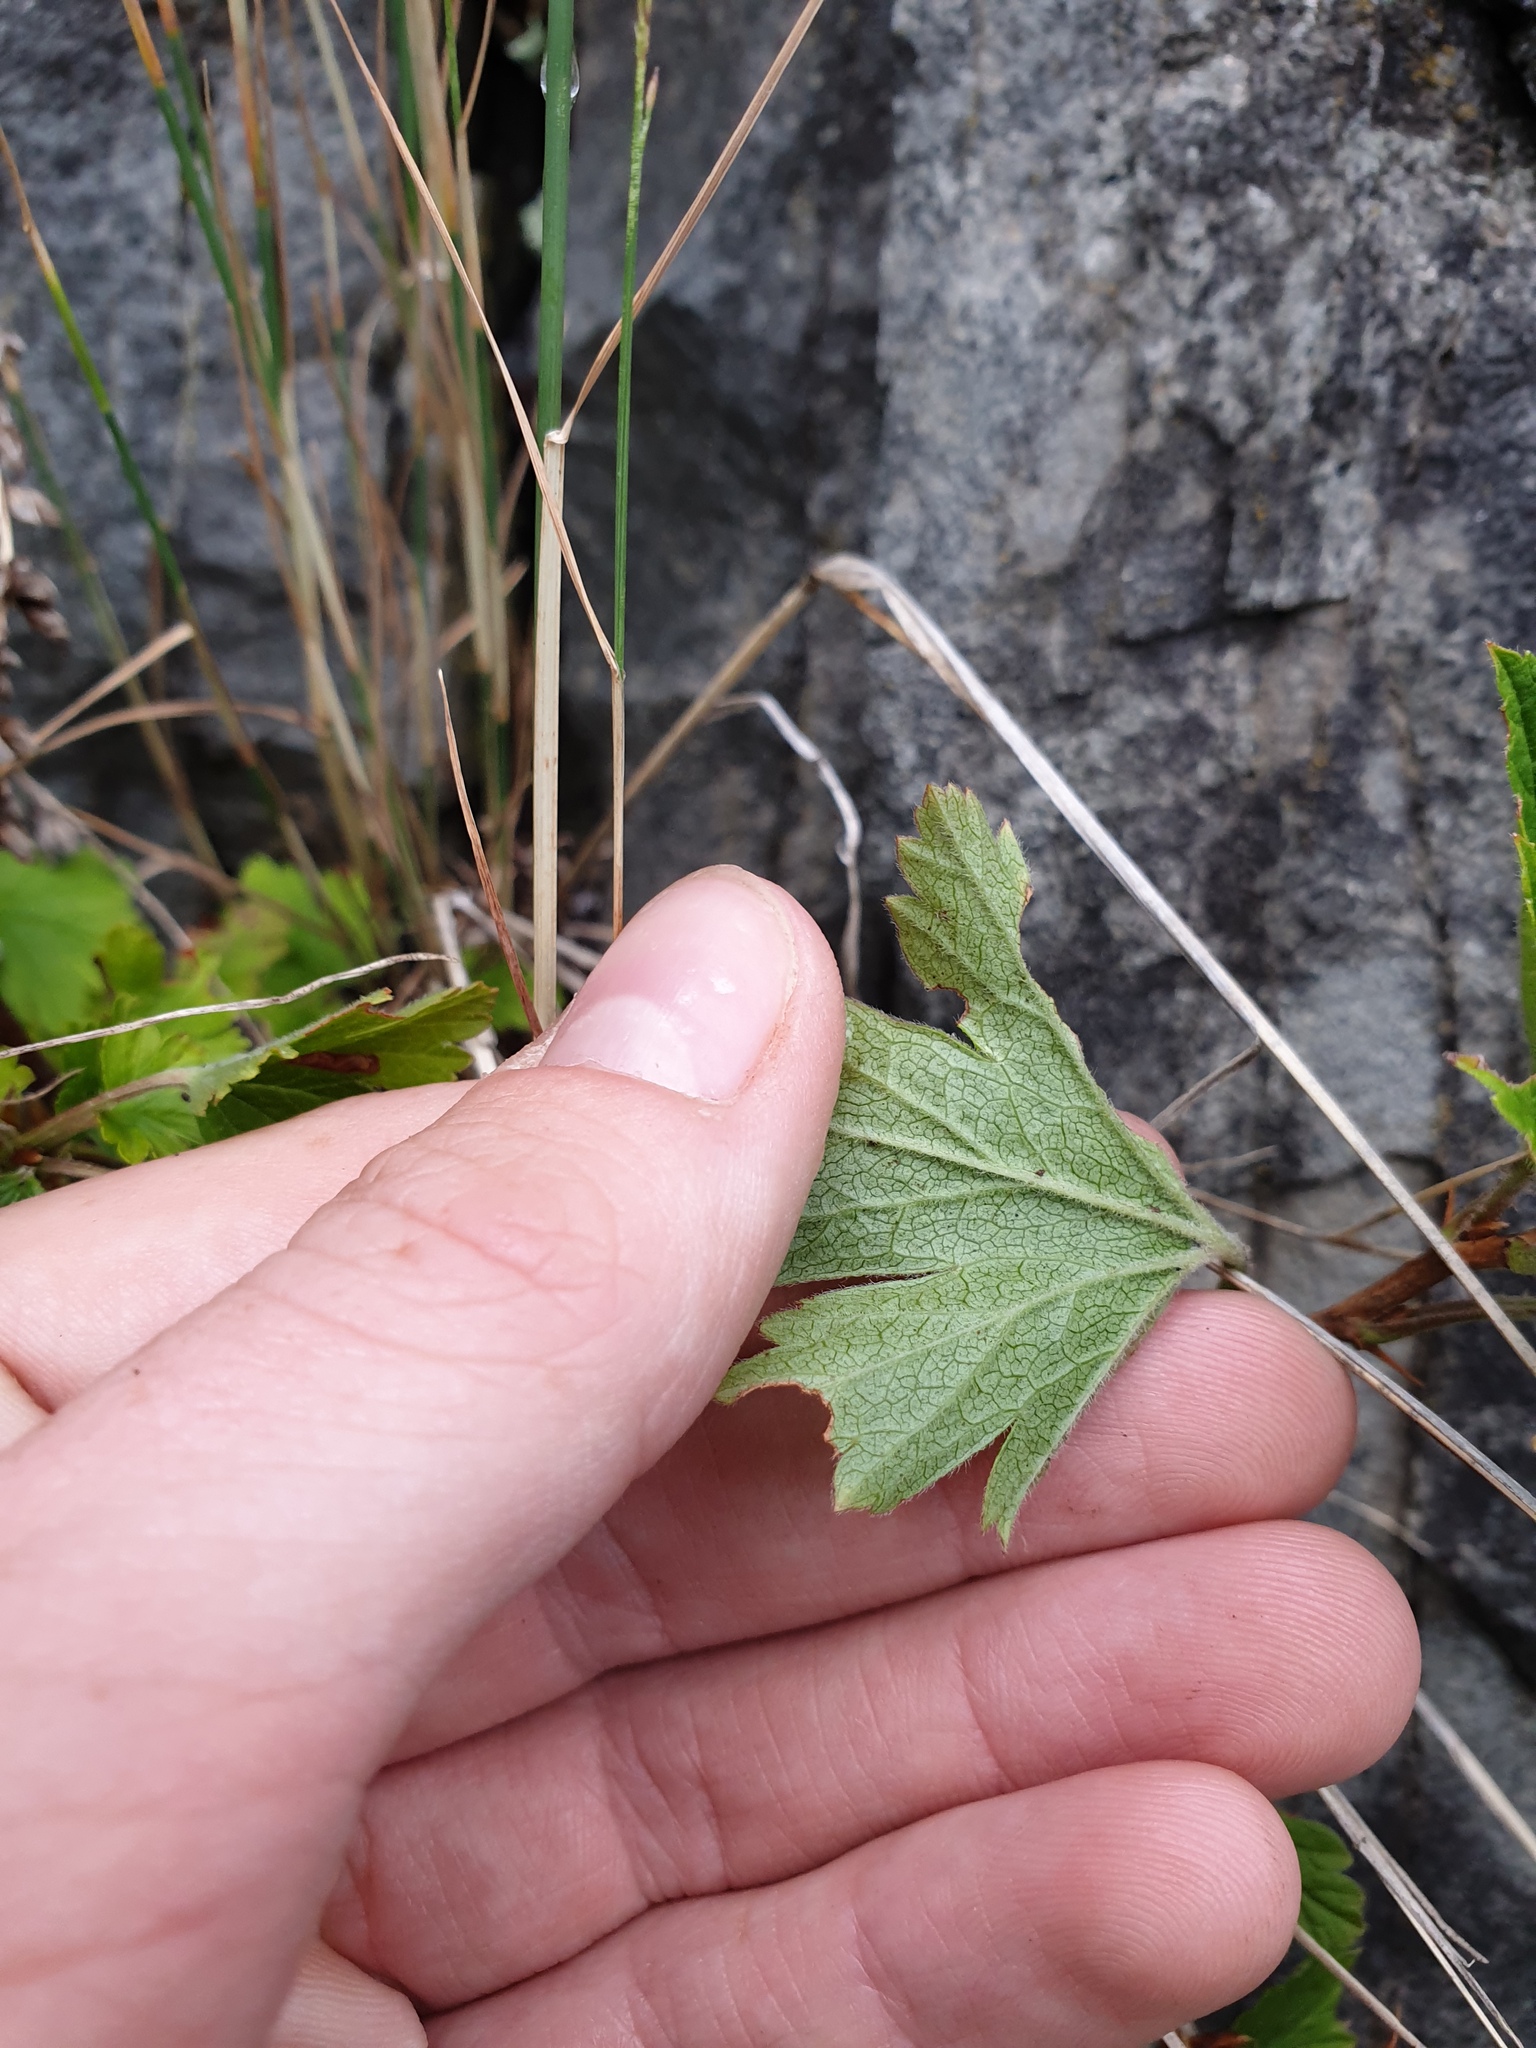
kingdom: Plantae
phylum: Tracheophyta
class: Magnoliopsida
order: Saxifragales
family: Grossulariaceae
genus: Ribes
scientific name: Ribes hirtellum
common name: Hairy gooseberry
